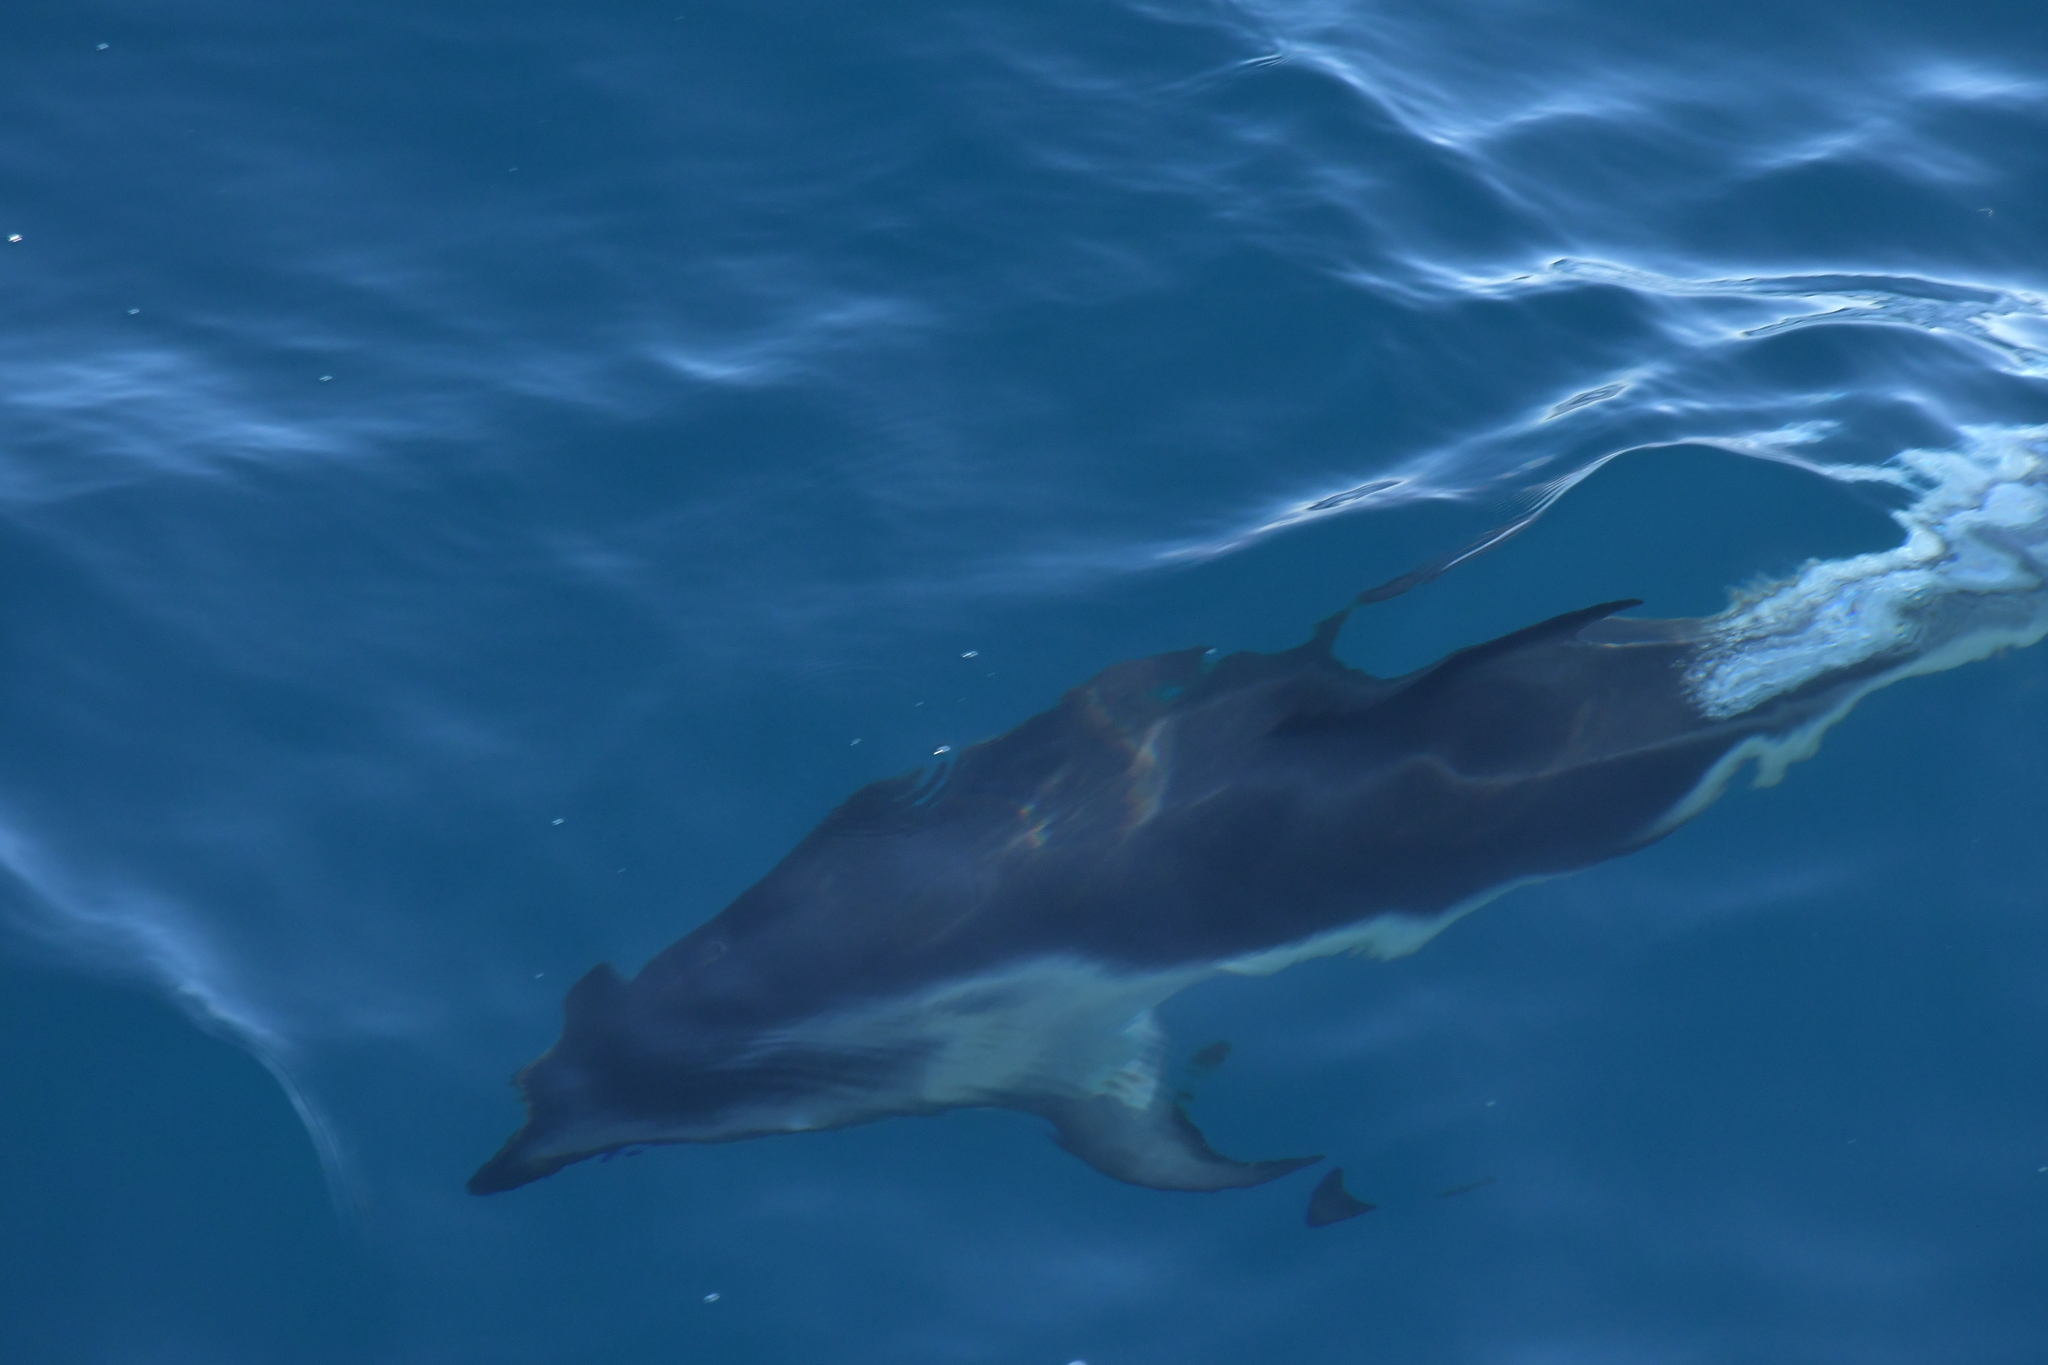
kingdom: Animalia
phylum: Chordata
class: Mammalia
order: Cetacea
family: Delphinidae
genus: Lagenorhynchus
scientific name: Lagenorhynchus obscurus
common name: Dusky dolphin
